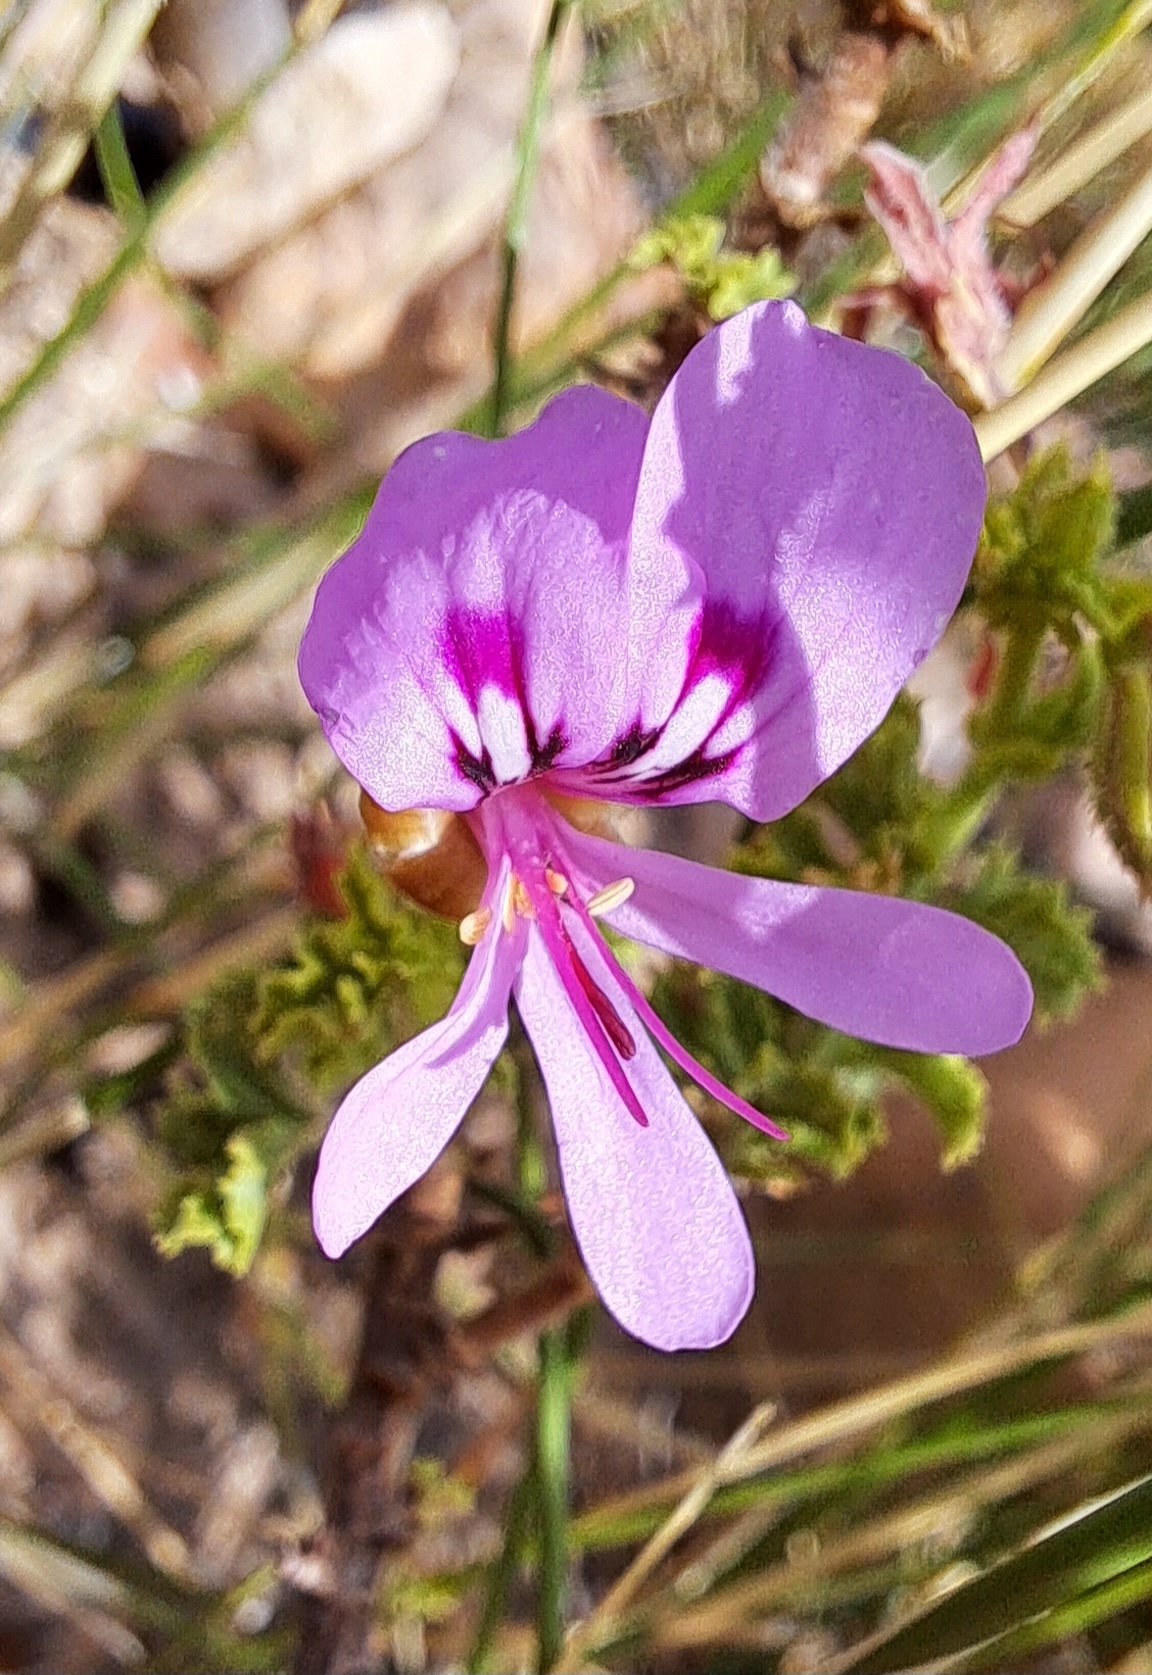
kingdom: Plantae
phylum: Tracheophyta
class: Magnoliopsida
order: Geraniales
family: Geraniaceae
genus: Pelargonium
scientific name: Pelargonium crispum
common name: Crisped-leaf pelargonium
